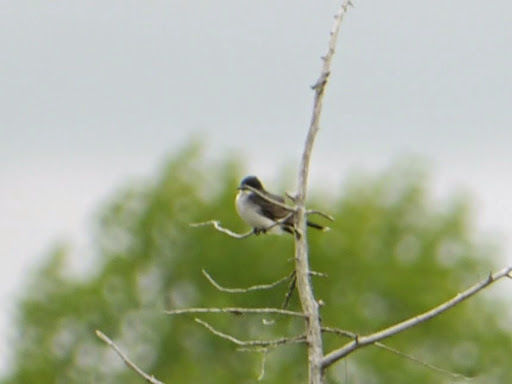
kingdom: Animalia
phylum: Chordata
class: Aves
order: Passeriformes
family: Tyrannidae
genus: Tyrannus
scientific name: Tyrannus tyrannus
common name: Eastern kingbird
